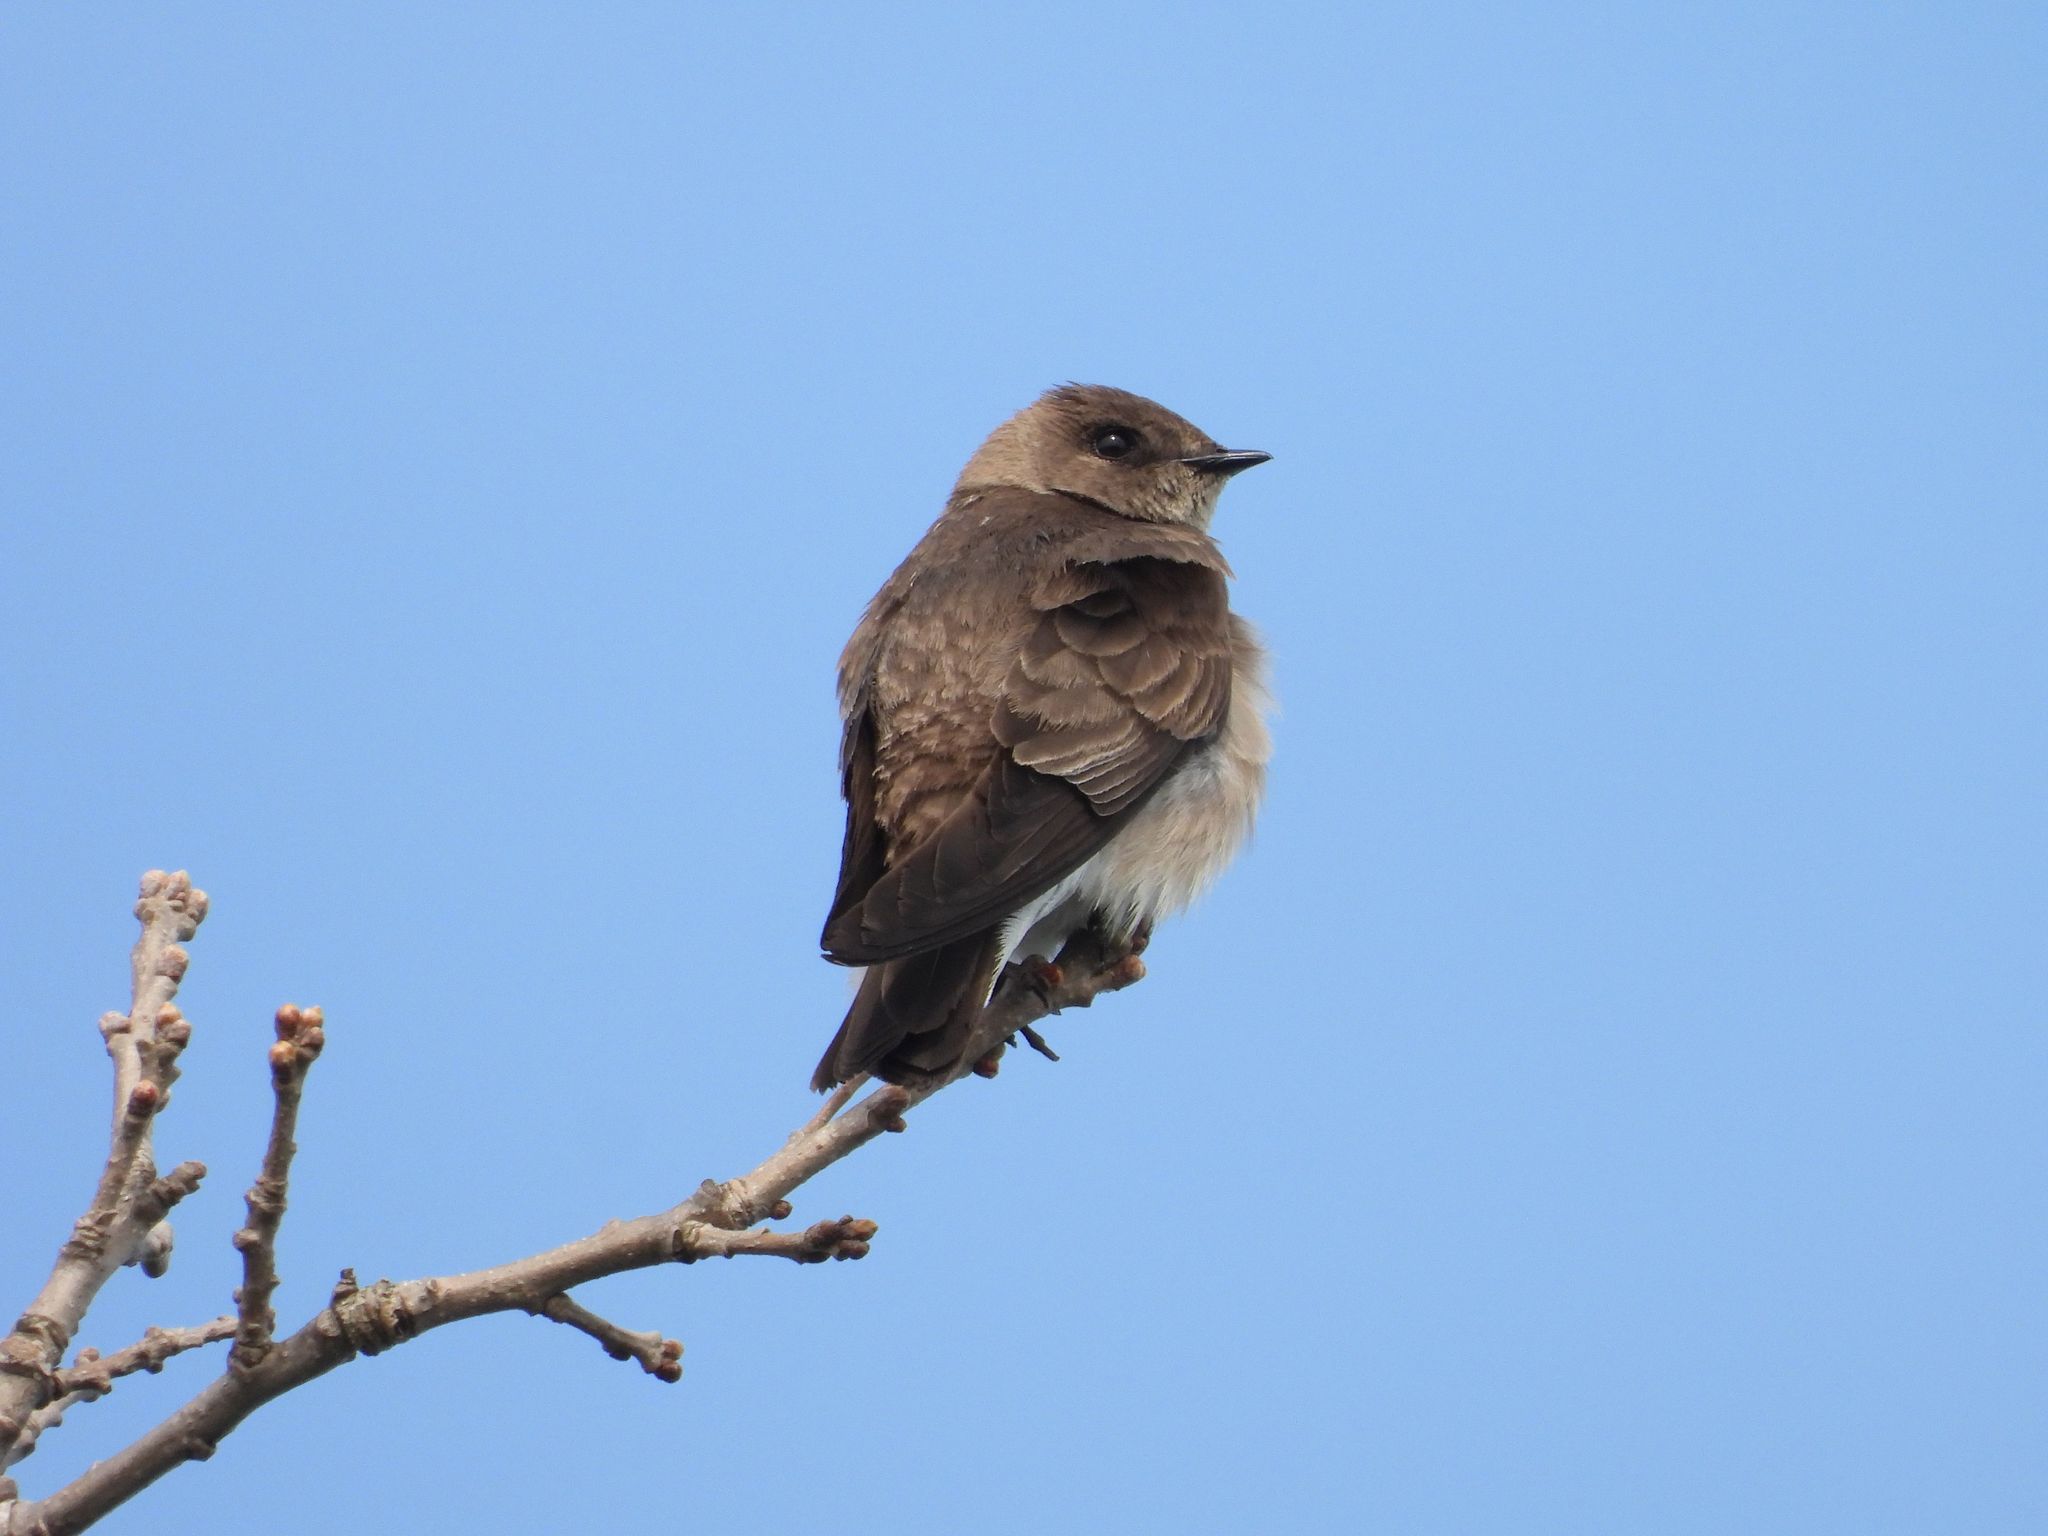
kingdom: Animalia
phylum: Chordata
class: Aves
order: Passeriformes
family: Hirundinidae
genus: Stelgidopteryx
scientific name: Stelgidopteryx serripennis
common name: Northern rough-winged swallow
